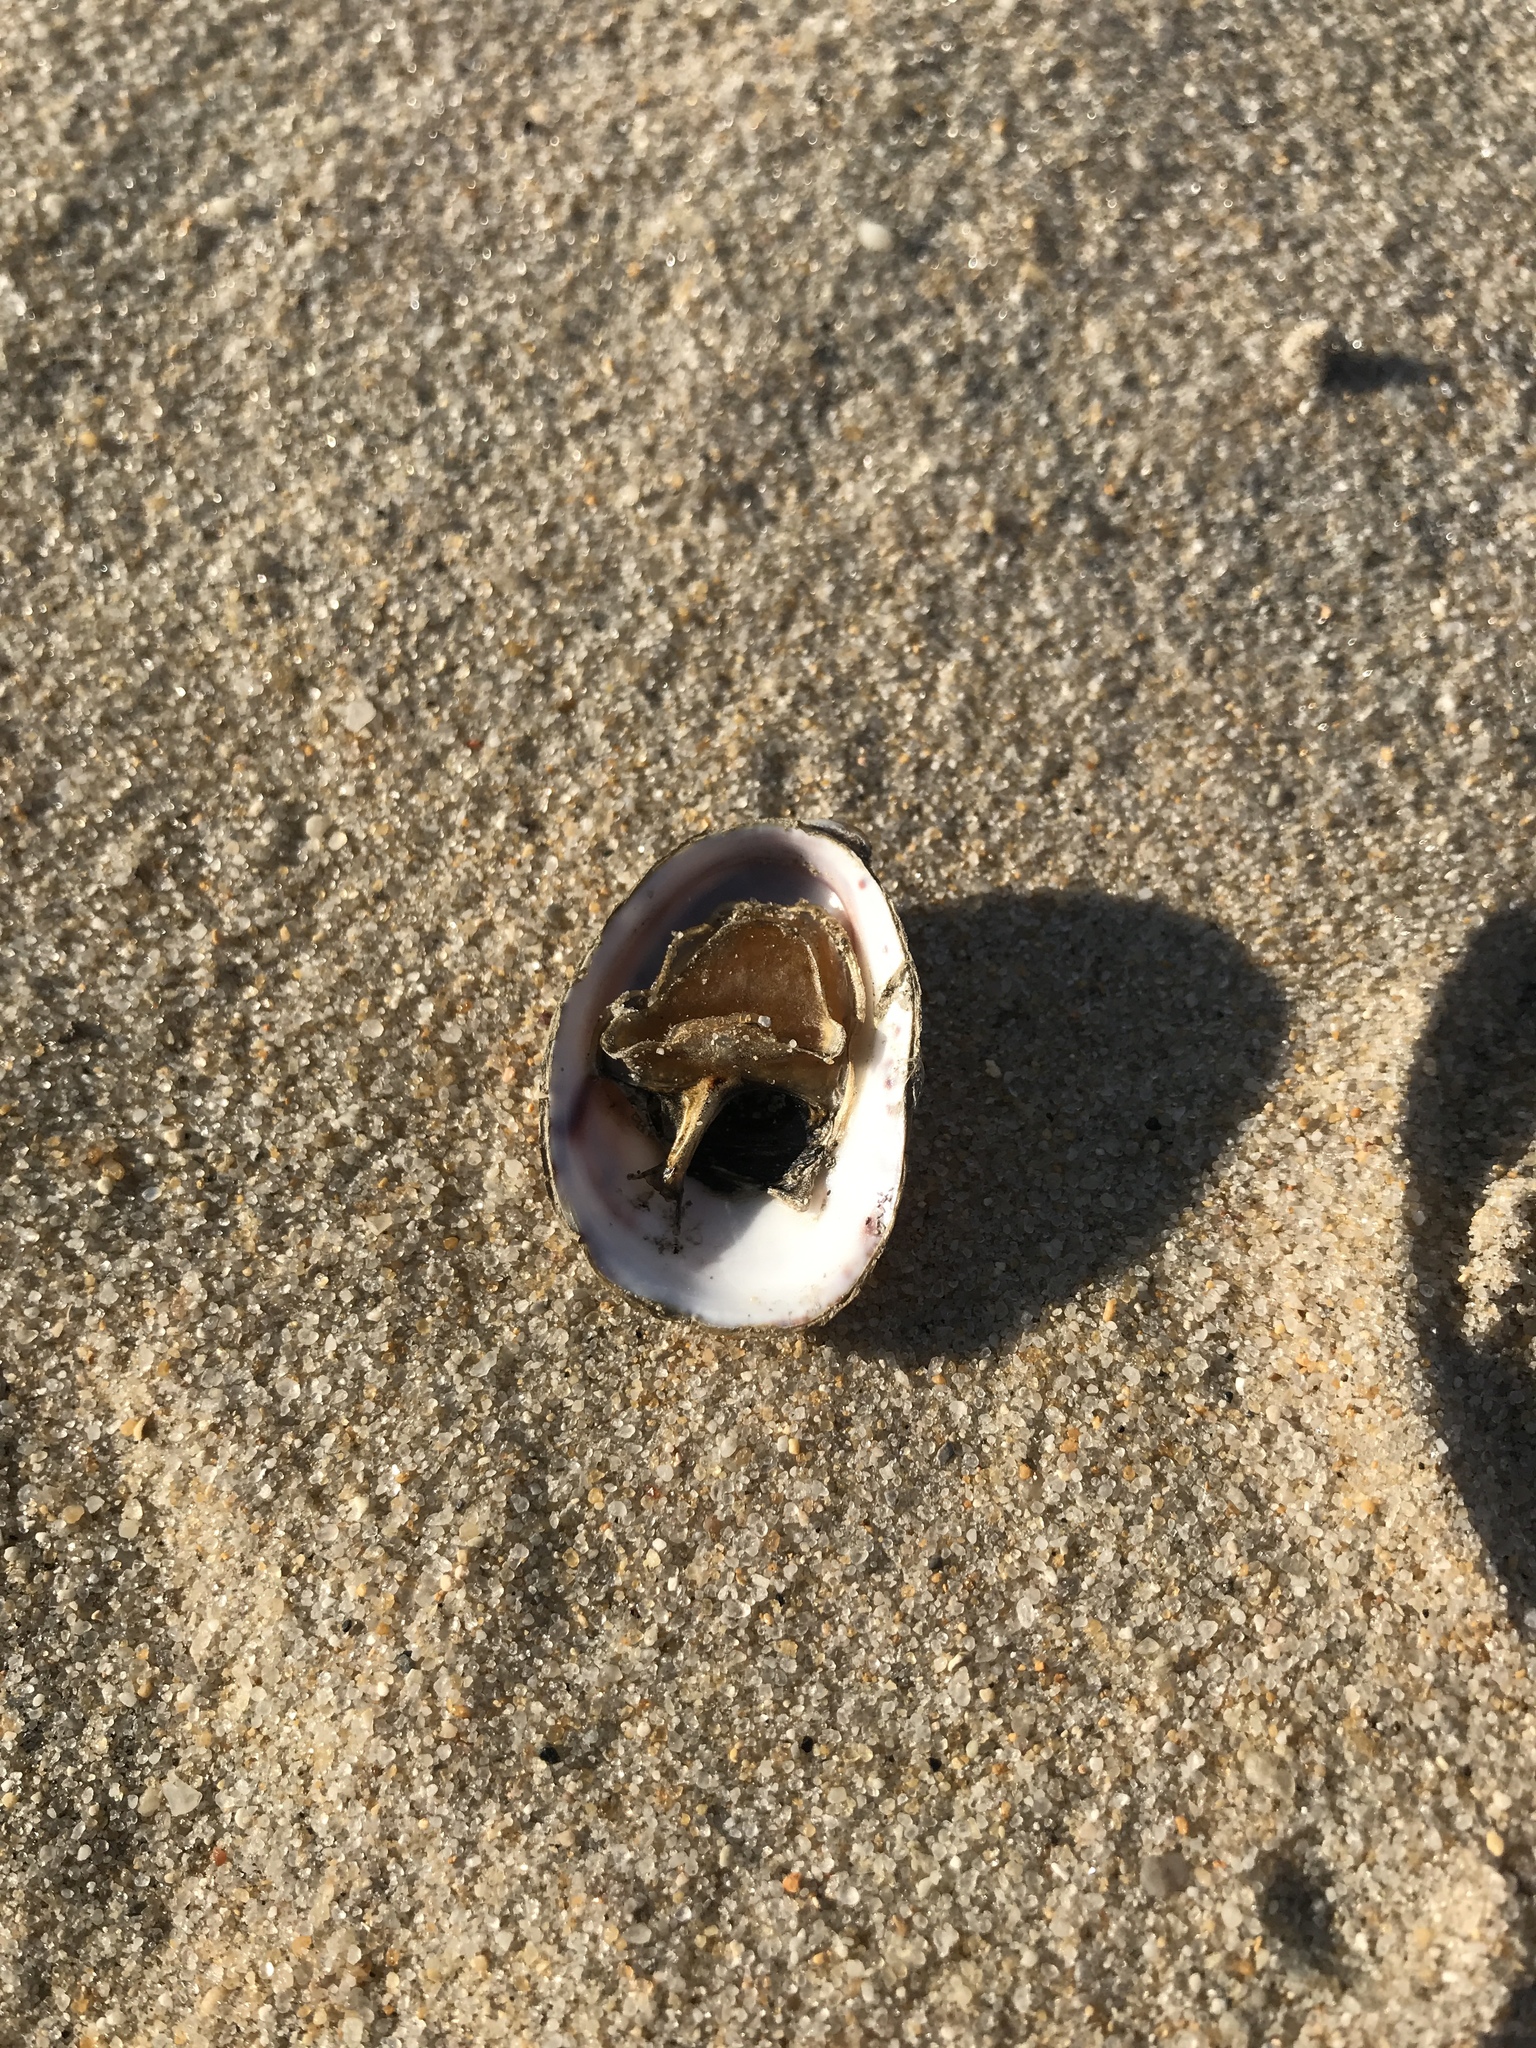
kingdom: Animalia
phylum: Mollusca
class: Gastropoda
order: Littorinimorpha
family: Calyptraeidae
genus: Crepidula
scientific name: Crepidula fornicata
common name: Slipper limpet
